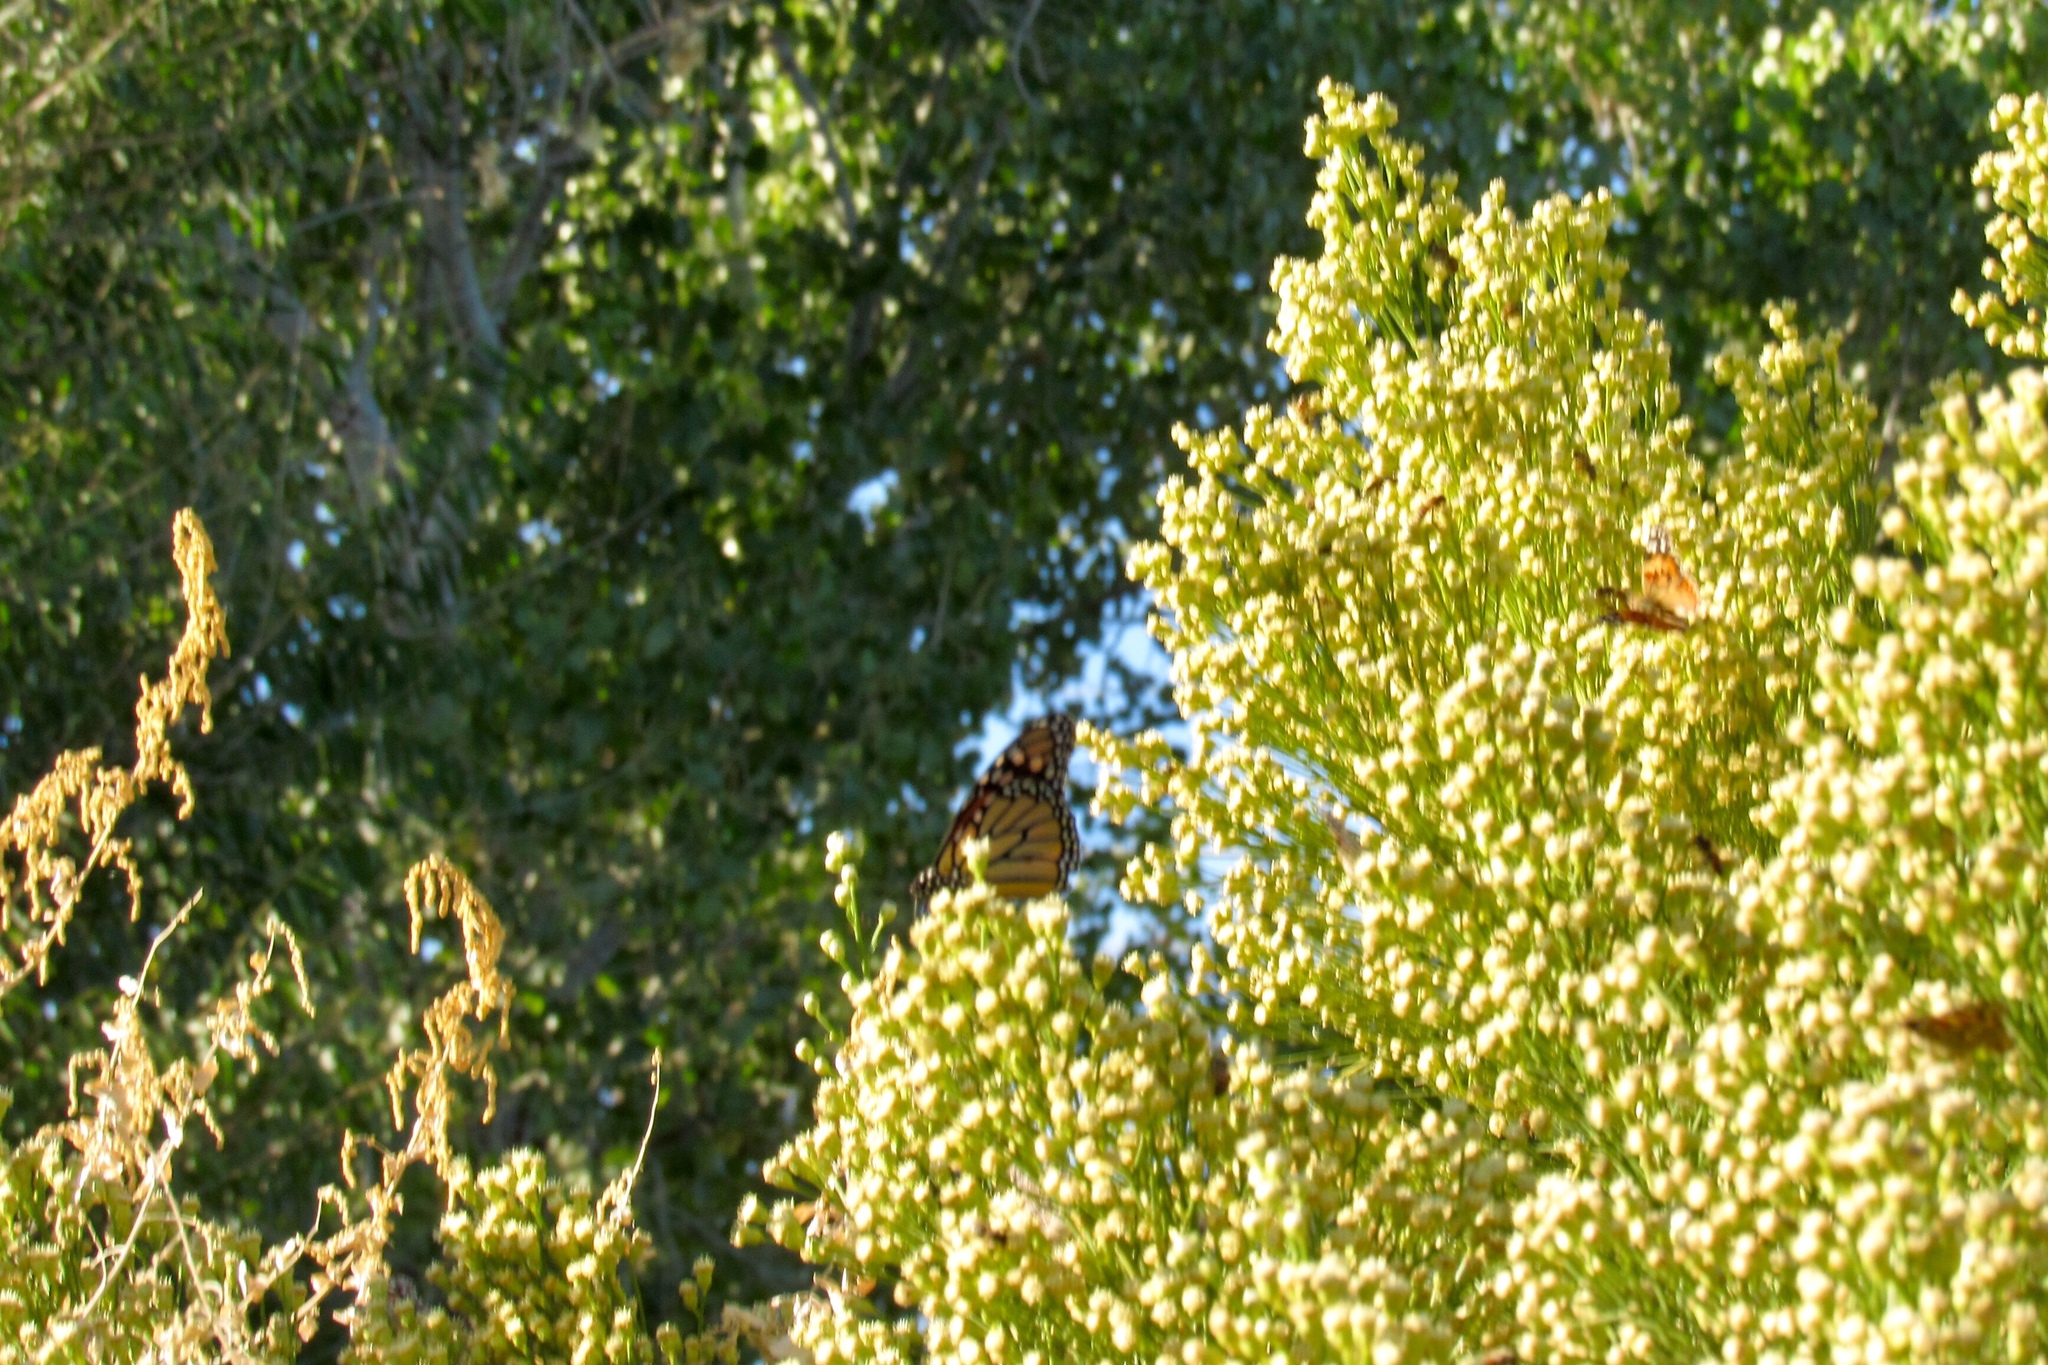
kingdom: Animalia
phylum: Arthropoda
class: Insecta
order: Lepidoptera
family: Nymphalidae
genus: Danaus
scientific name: Danaus plexippus
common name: Monarch
